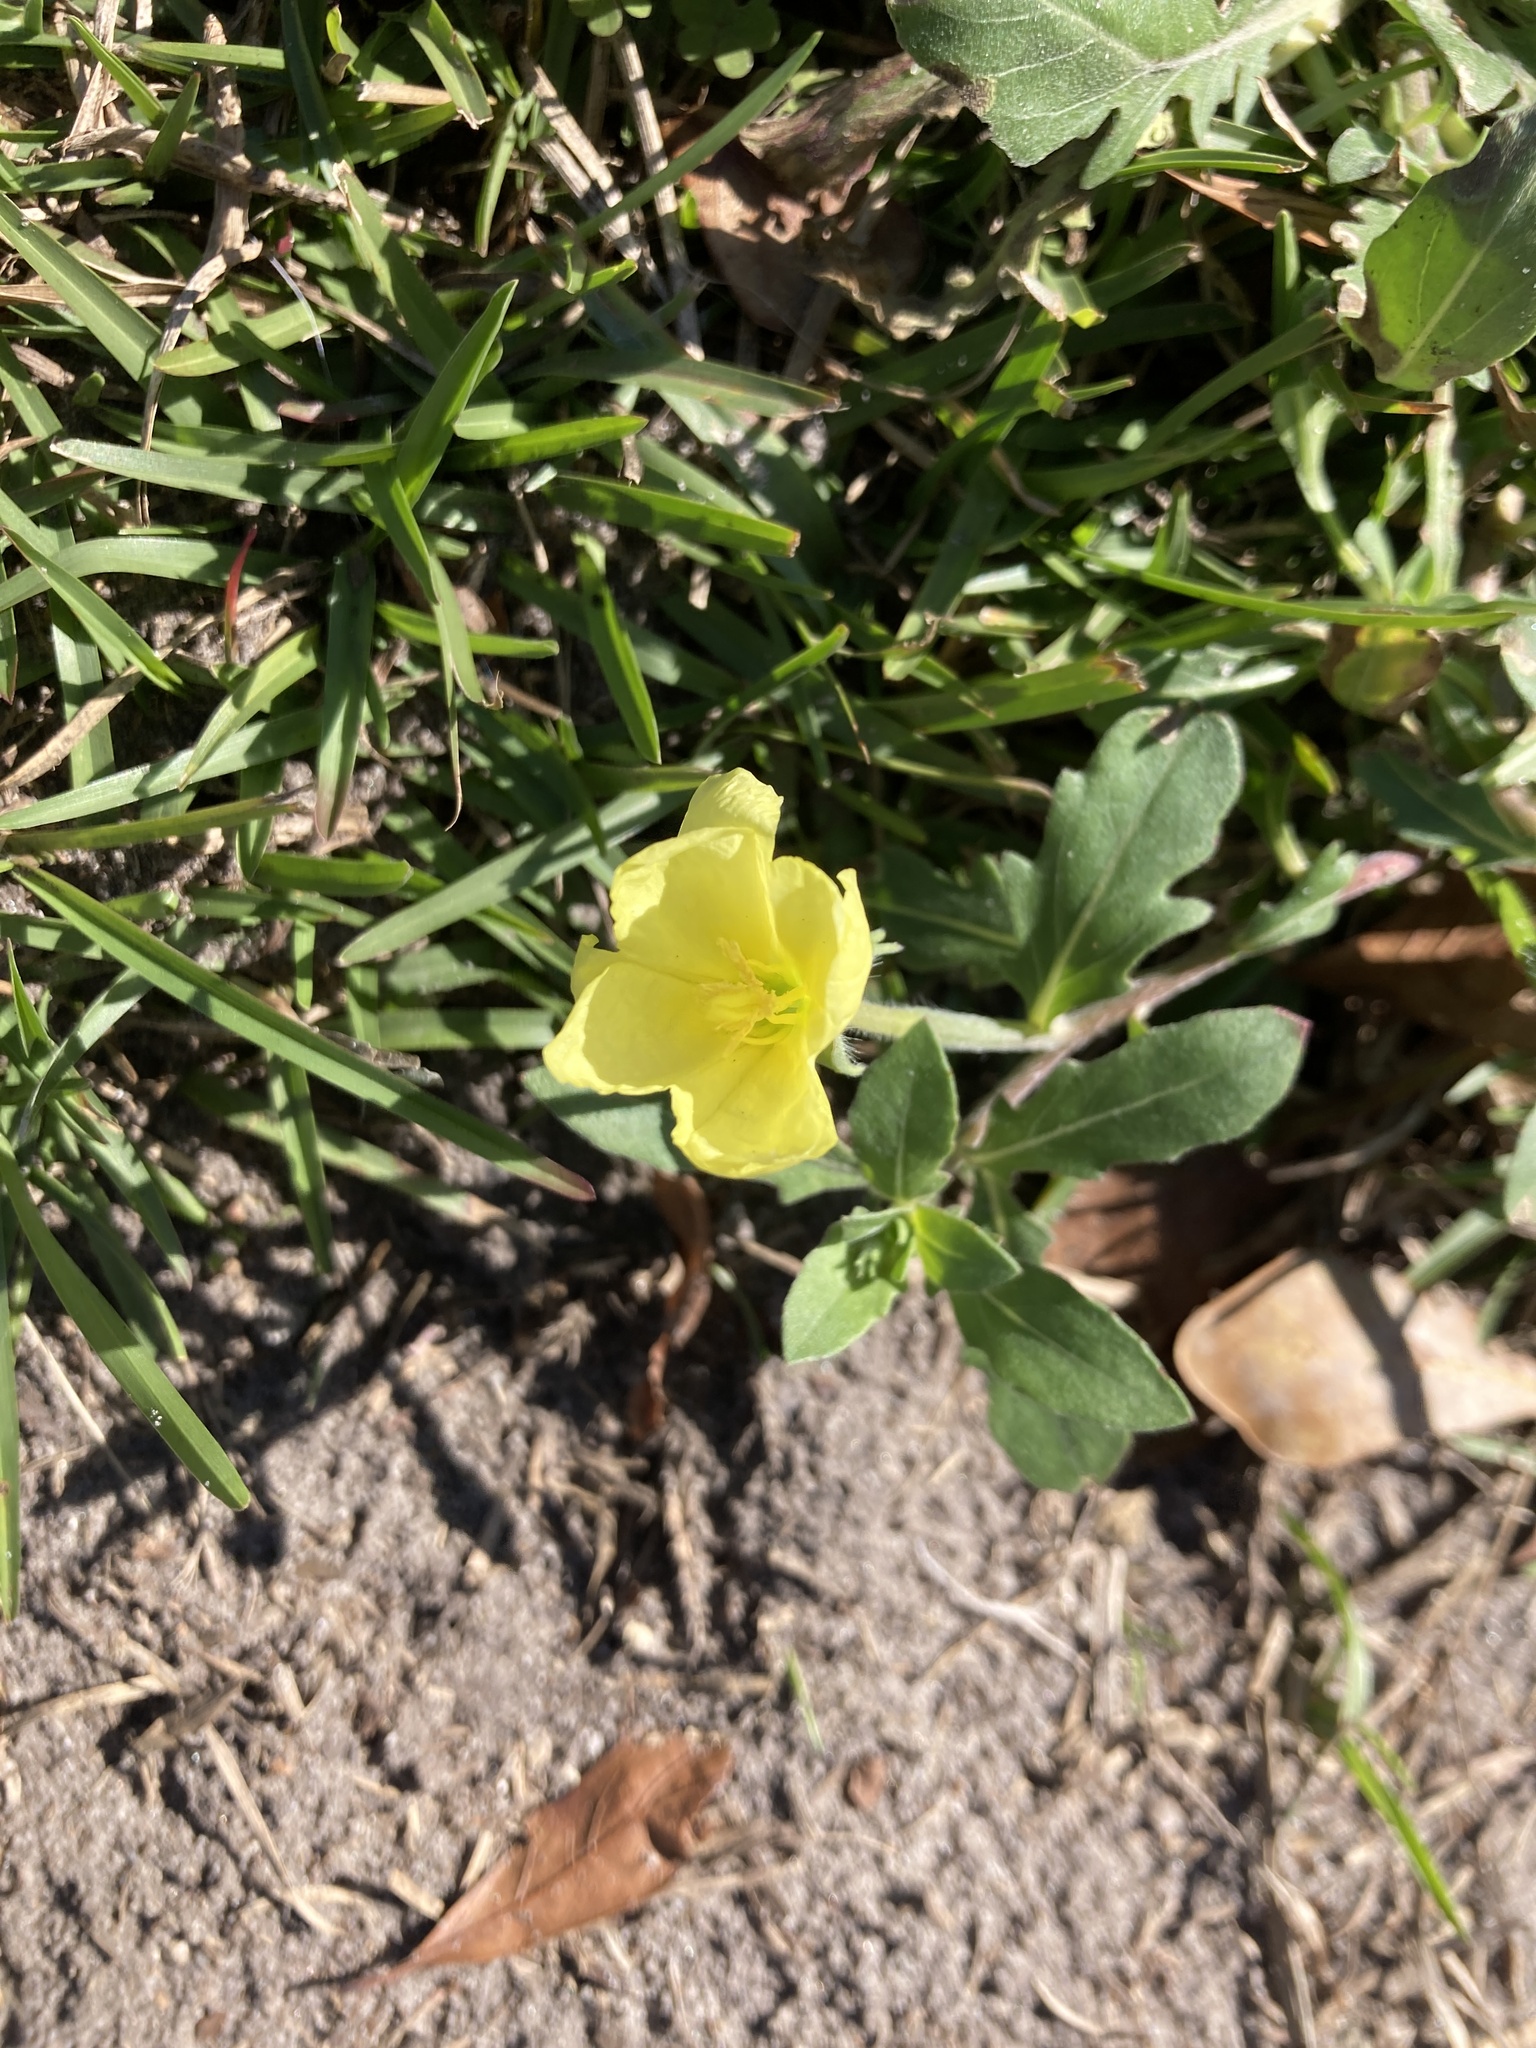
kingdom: Plantae
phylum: Tracheophyta
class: Magnoliopsida
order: Myrtales
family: Onagraceae
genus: Oenothera
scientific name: Oenothera laciniata
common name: Cut-leaved evening-primrose
